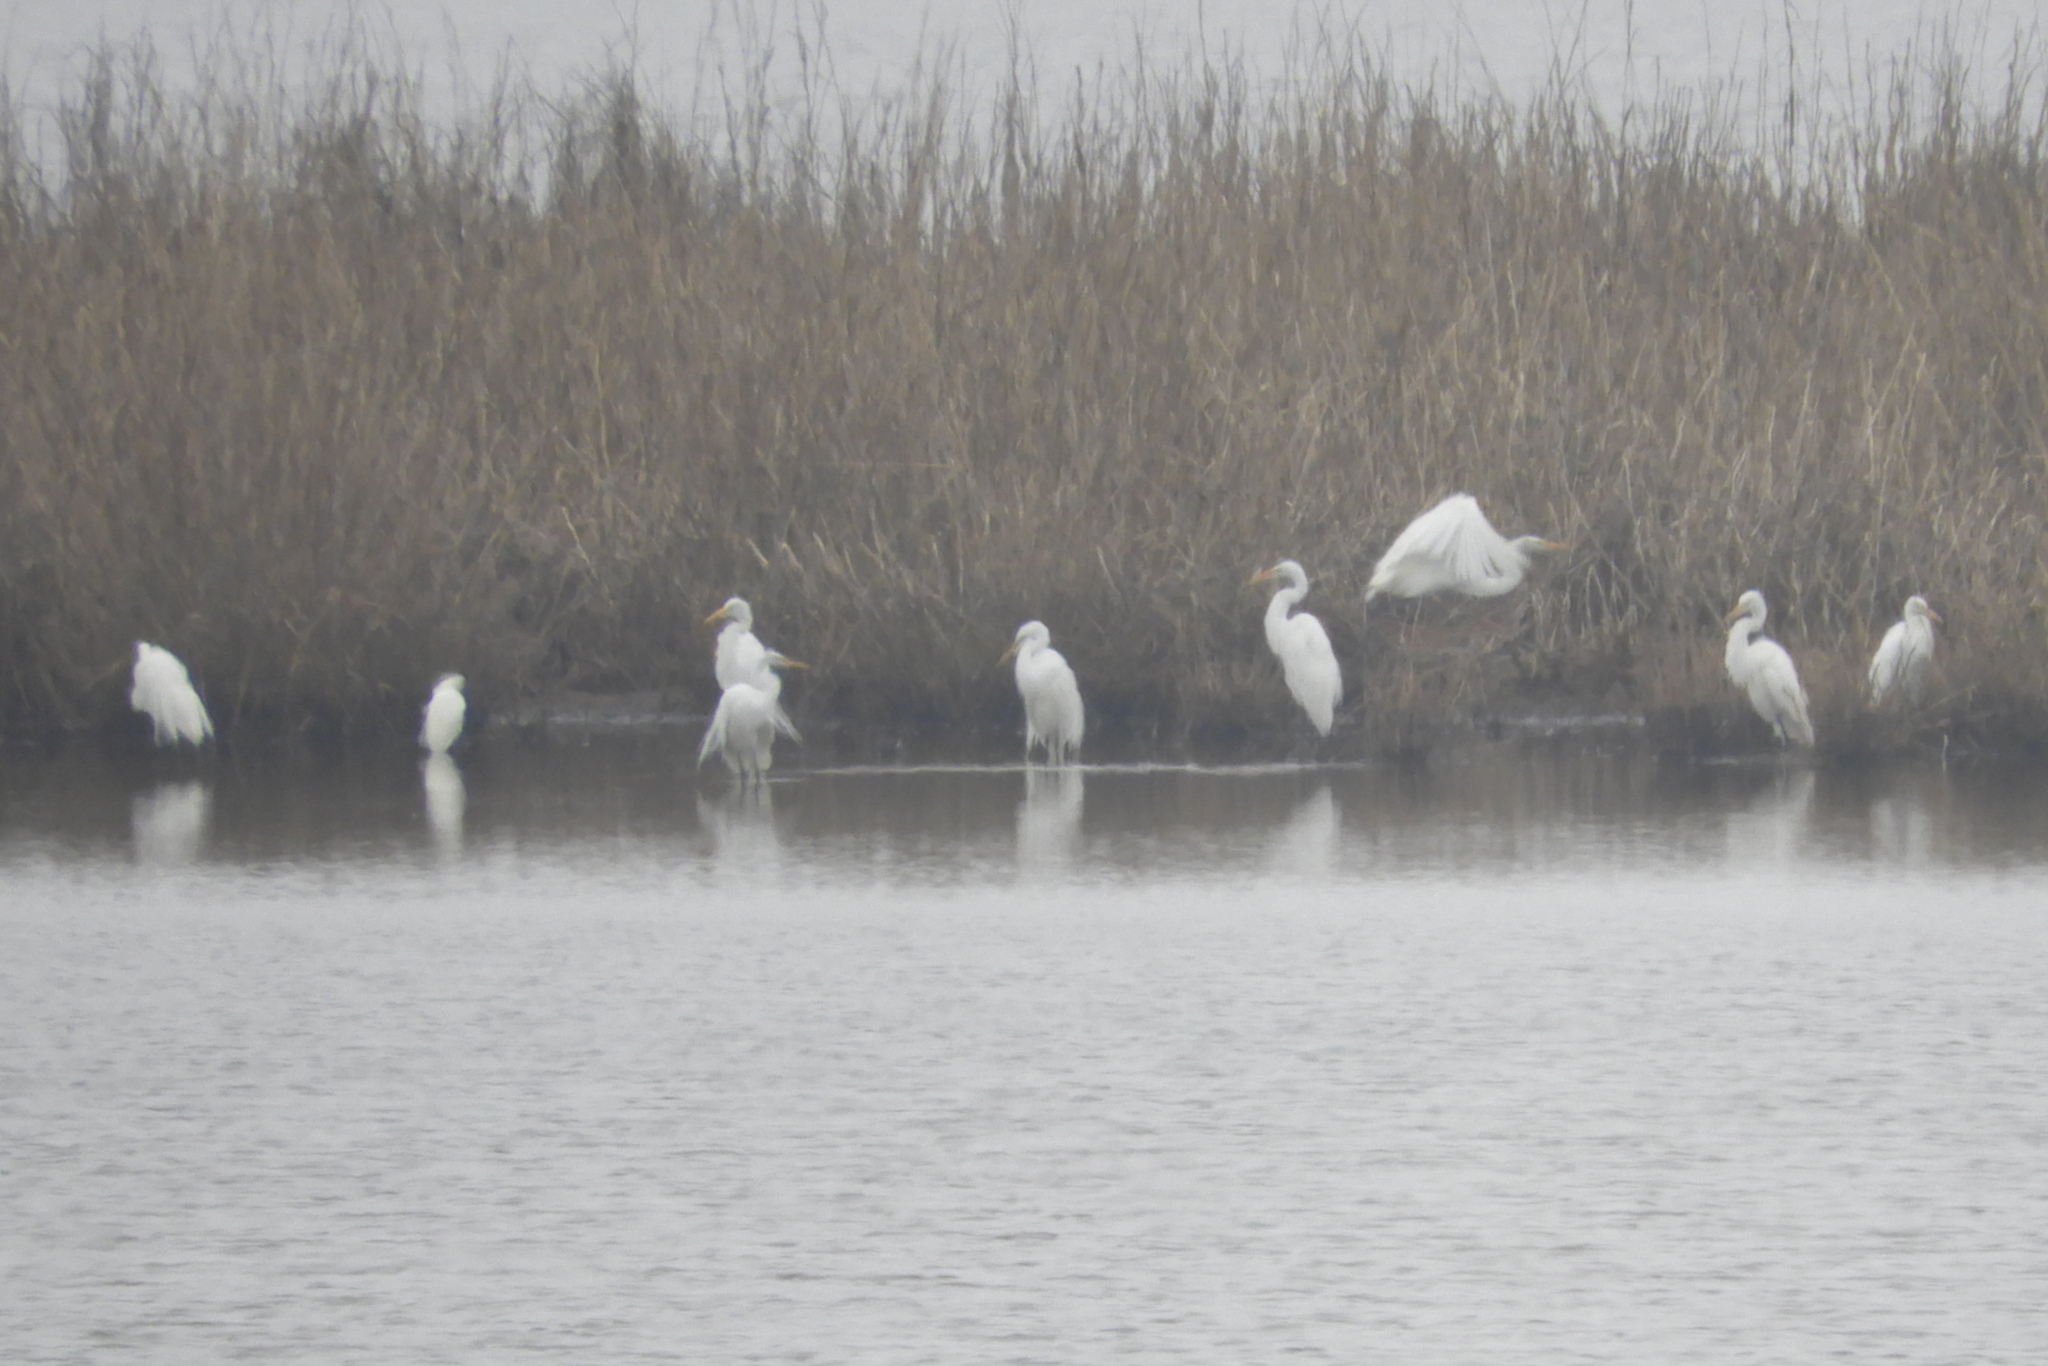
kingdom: Animalia
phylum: Chordata
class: Aves
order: Pelecaniformes
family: Ardeidae
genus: Ardea
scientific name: Ardea alba
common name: Great egret
